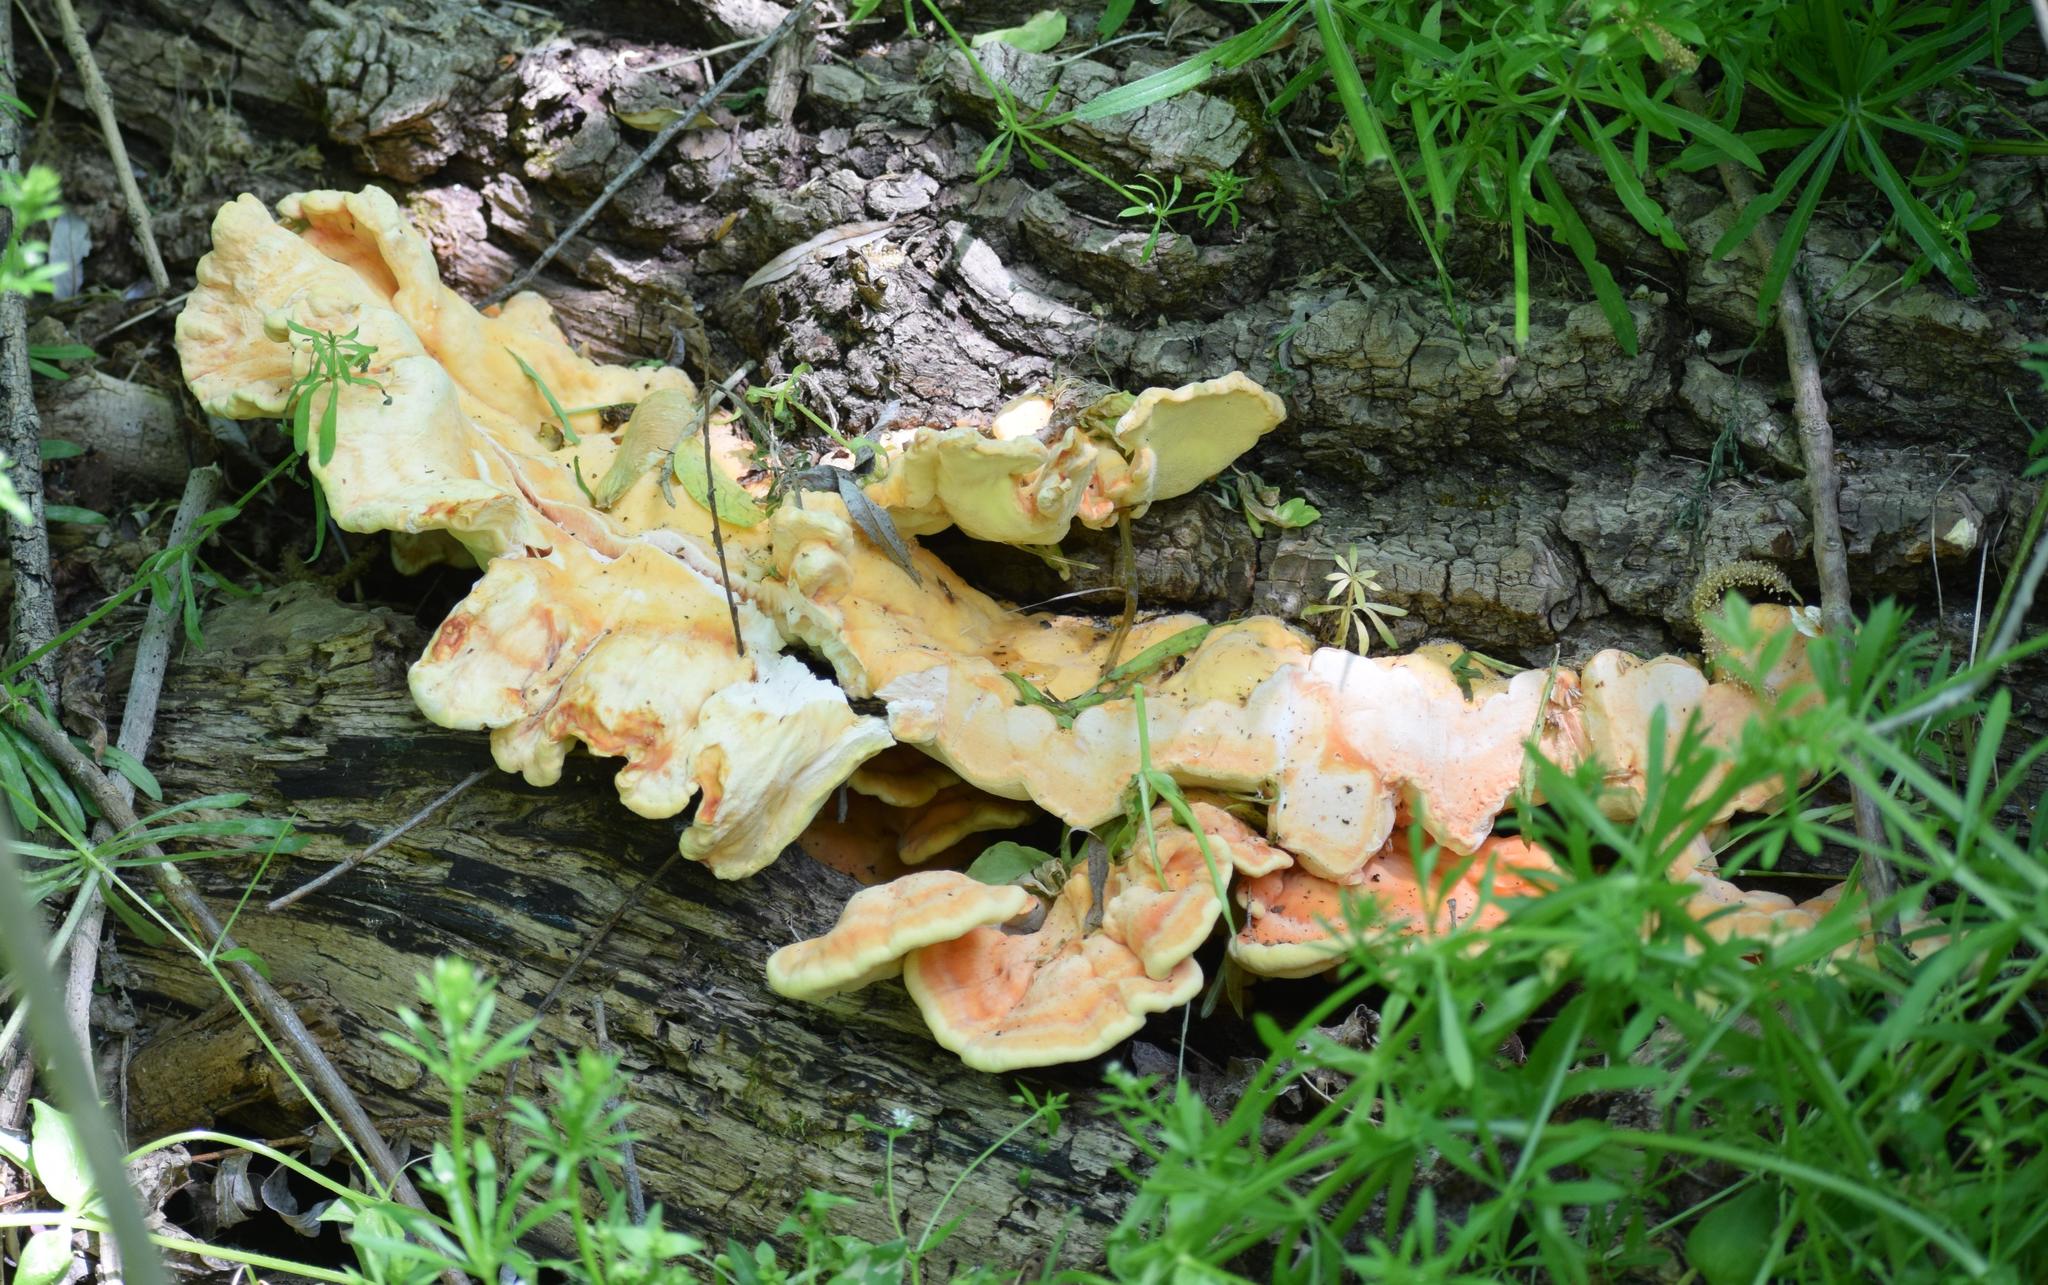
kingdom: Fungi
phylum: Basidiomycota
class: Agaricomycetes
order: Polyporales
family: Laetiporaceae
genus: Laetiporus
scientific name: Laetiporus sulphureus
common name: Chicken of the woods
